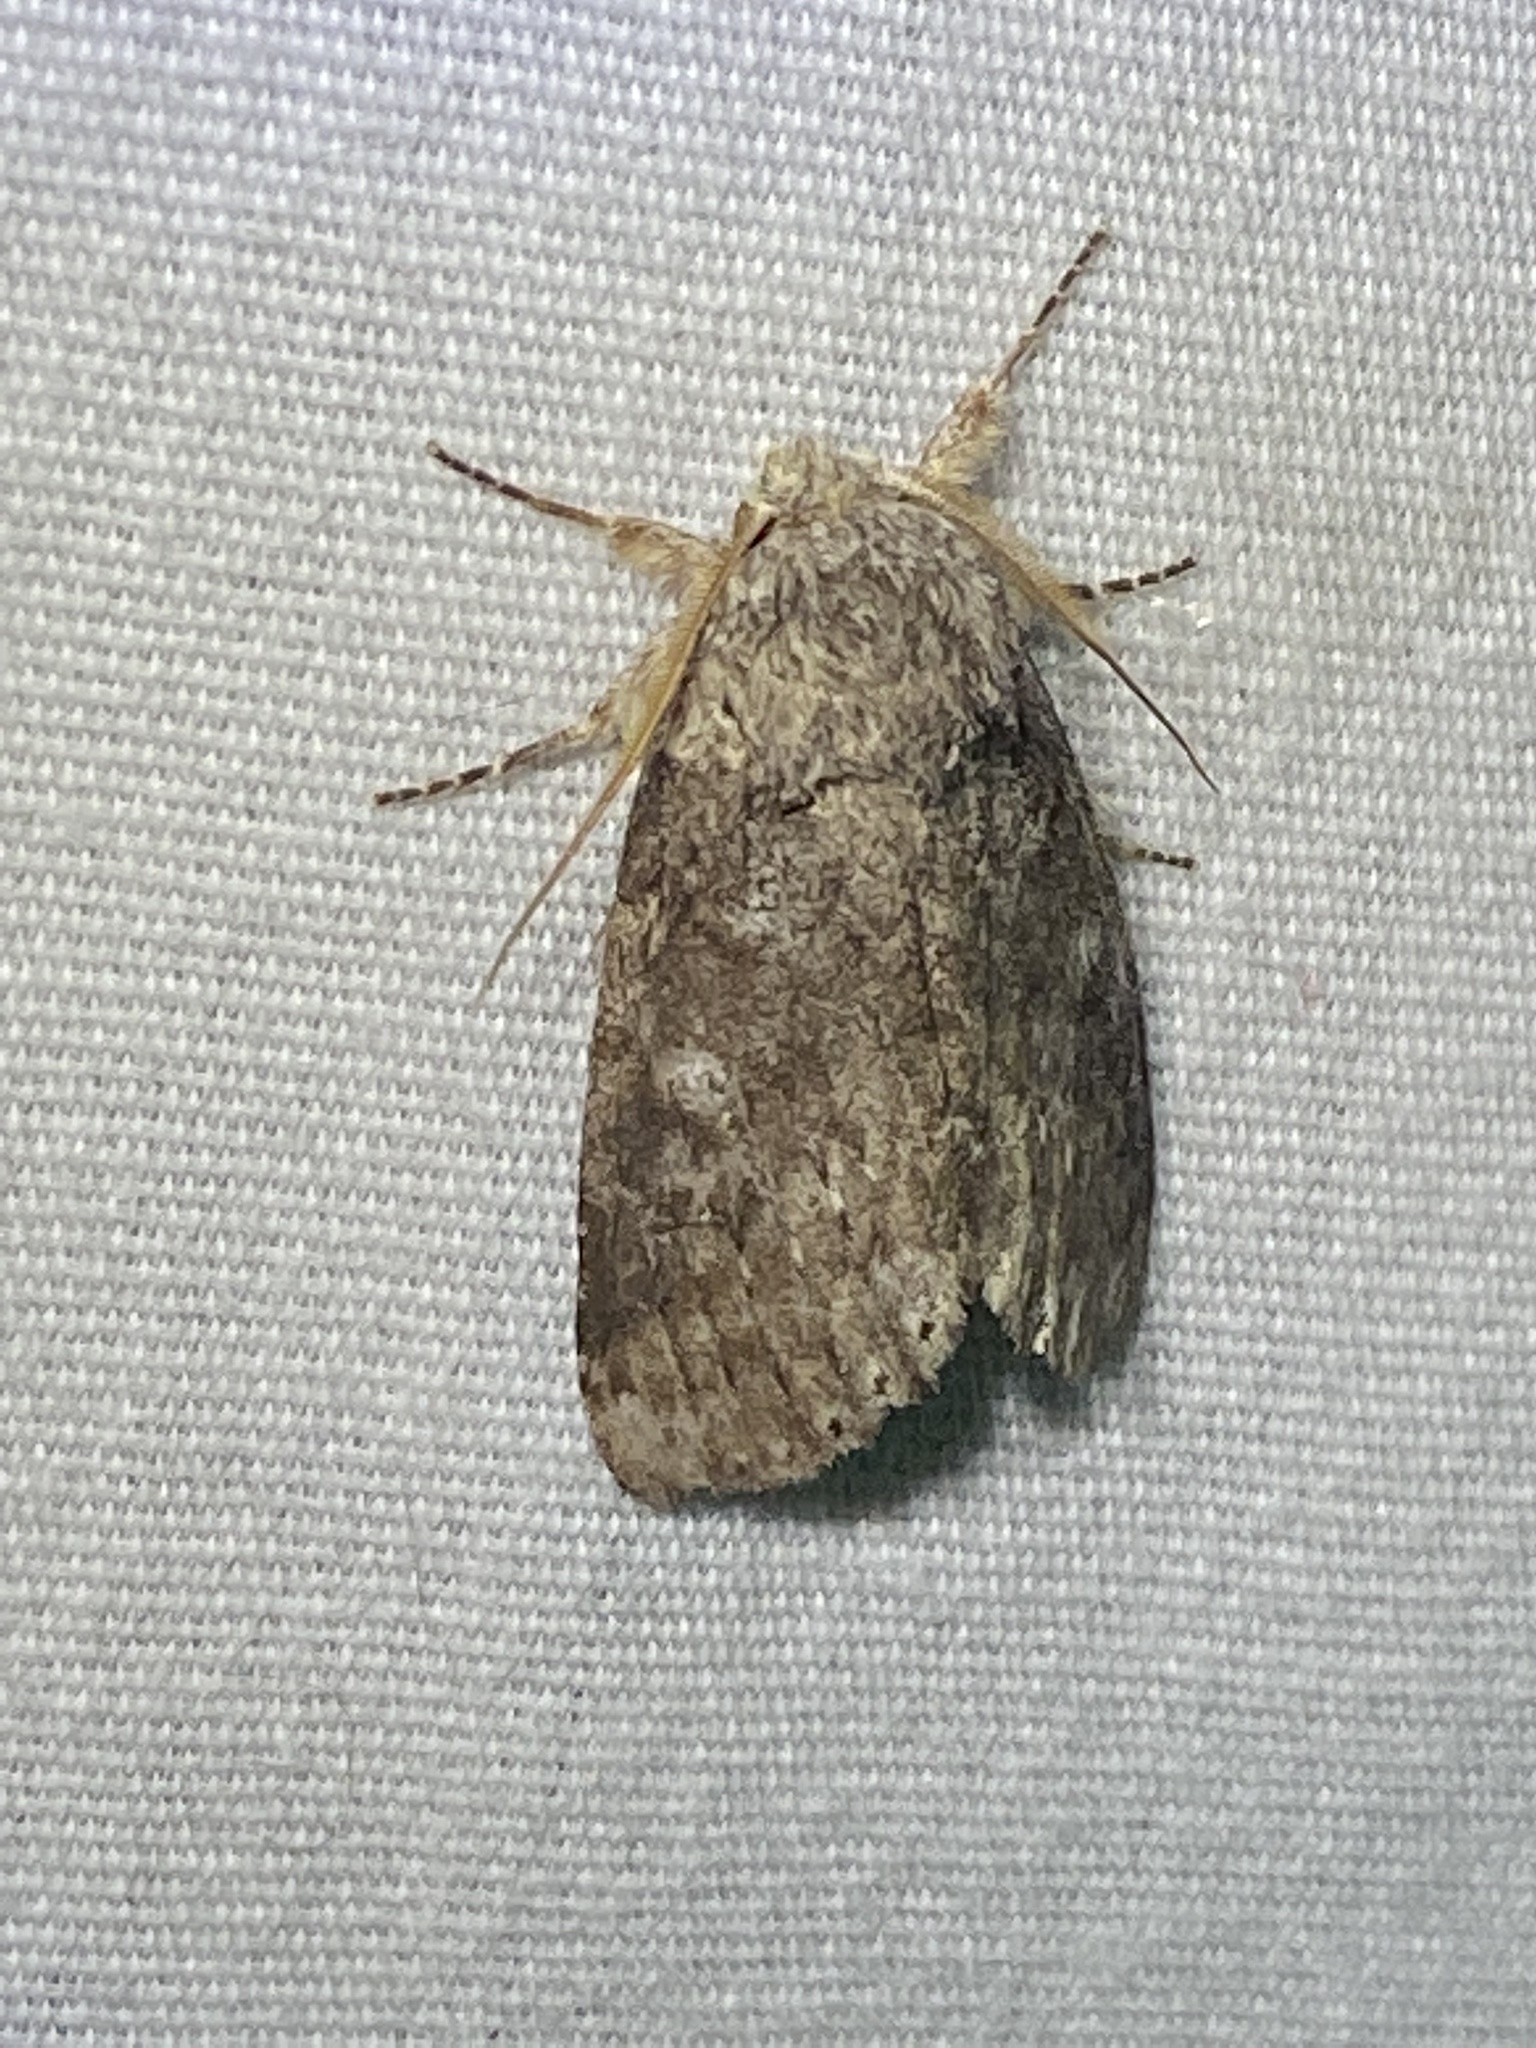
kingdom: Animalia
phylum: Arthropoda
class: Insecta
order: Lepidoptera
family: Notodontidae
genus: Lochmaeus
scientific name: Lochmaeus manteo
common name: Variable oakleaf caterpillar moth
